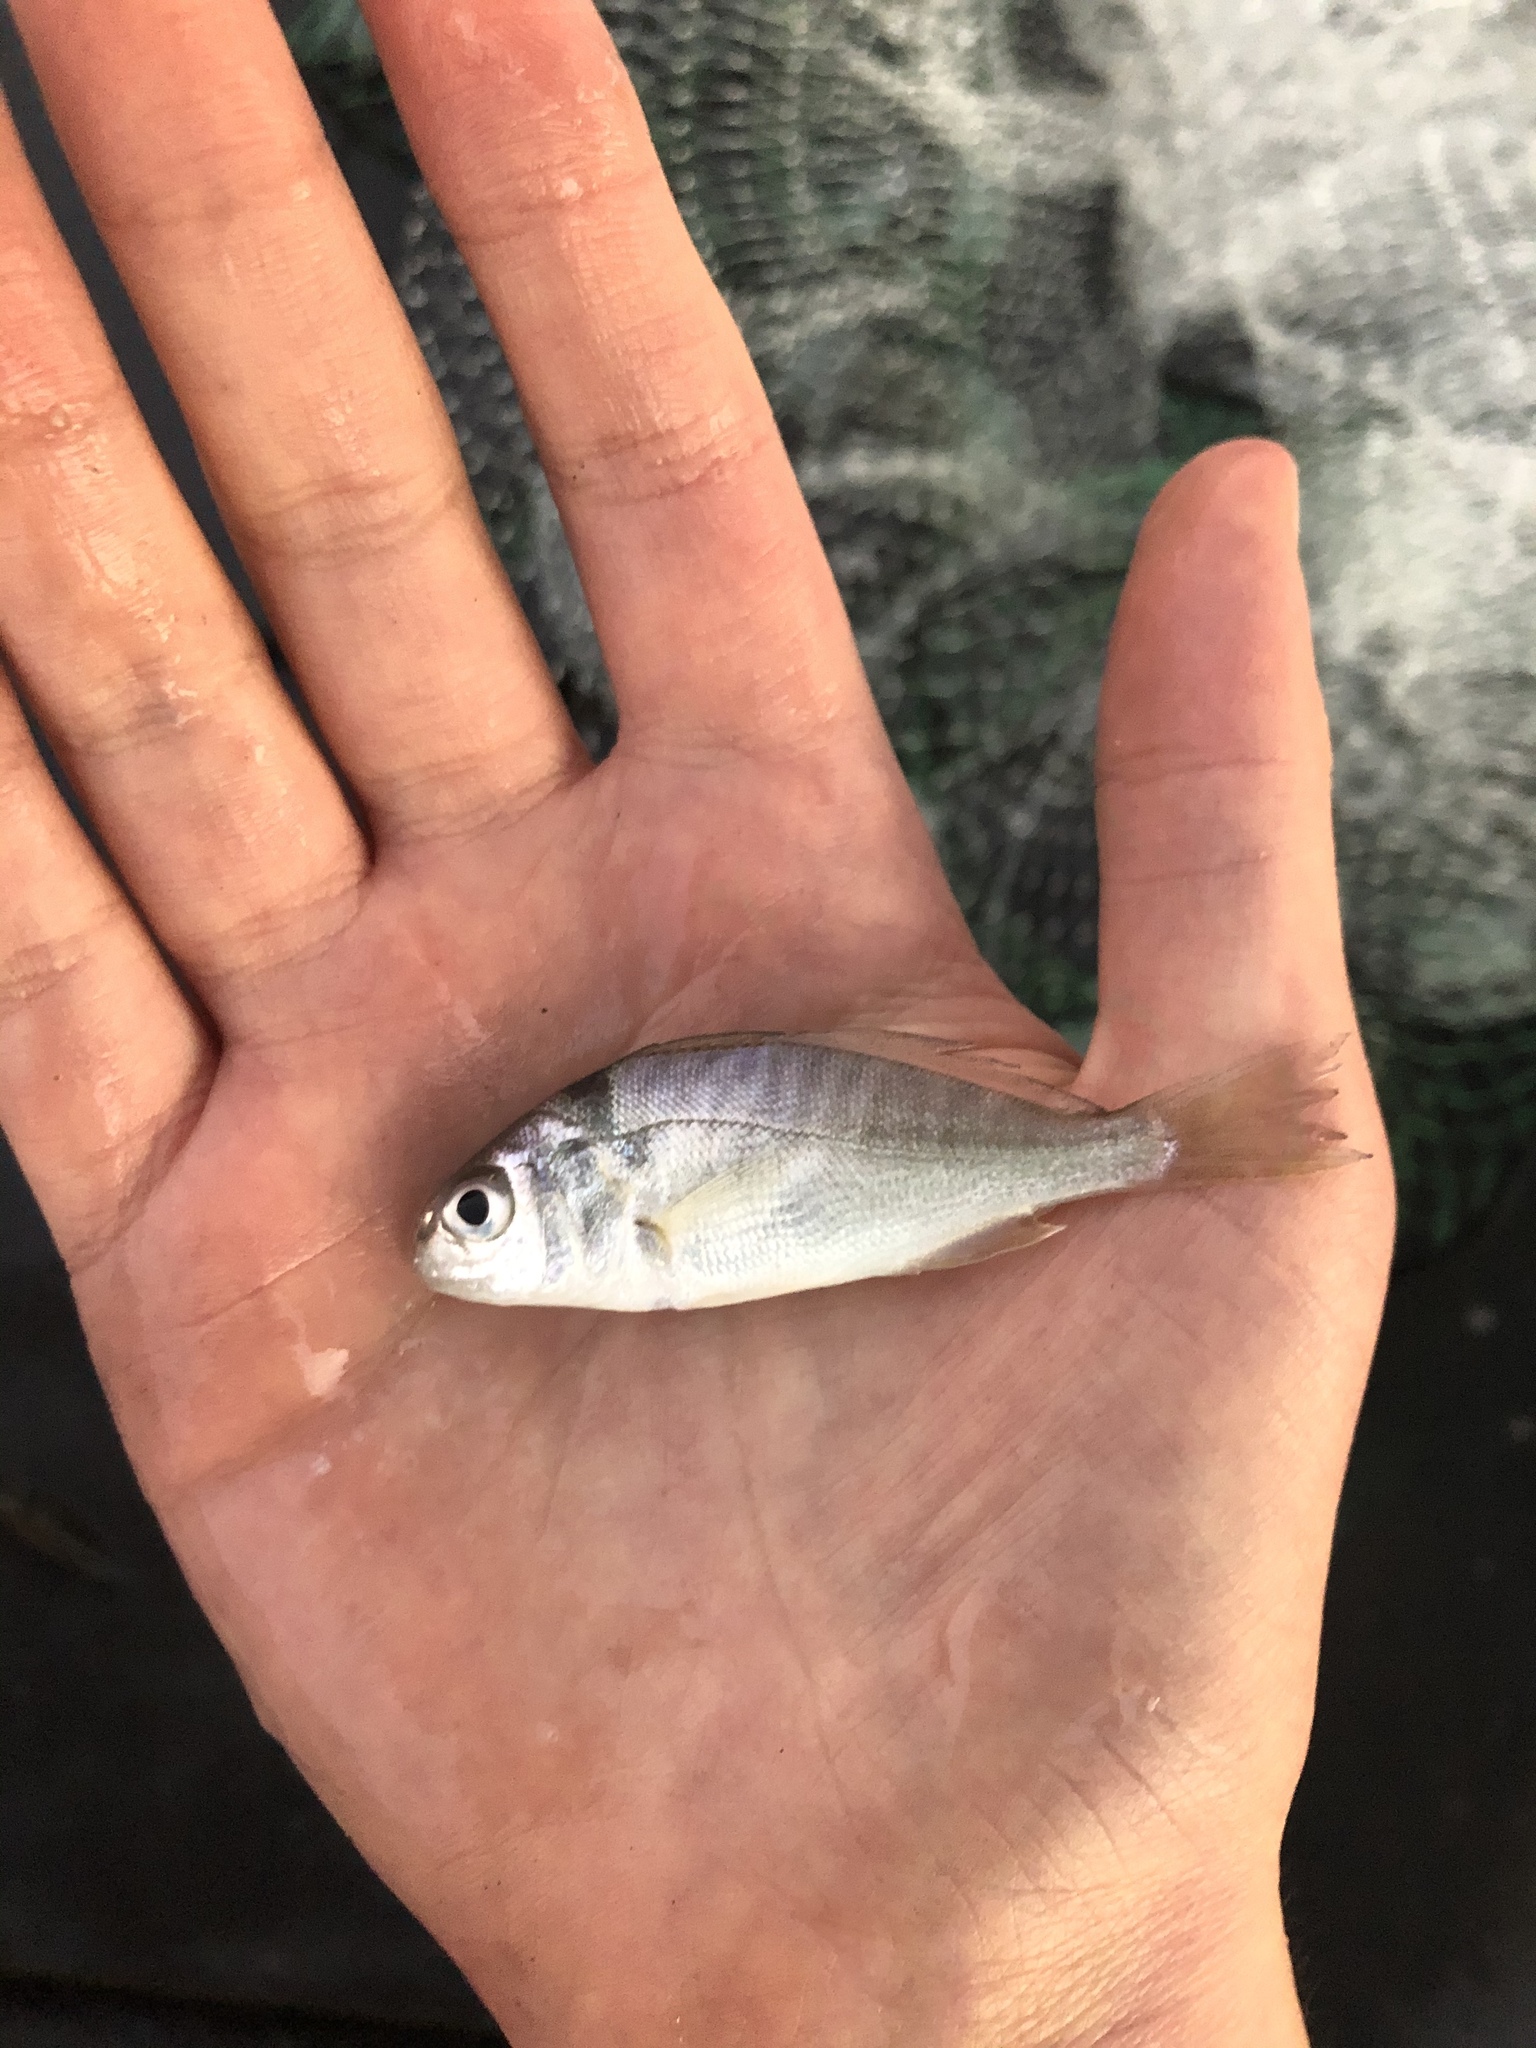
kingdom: Animalia
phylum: Chordata
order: Perciformes
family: Sciaenidae
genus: Leiostomus
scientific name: Leiostomus xanthurus
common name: Spot
